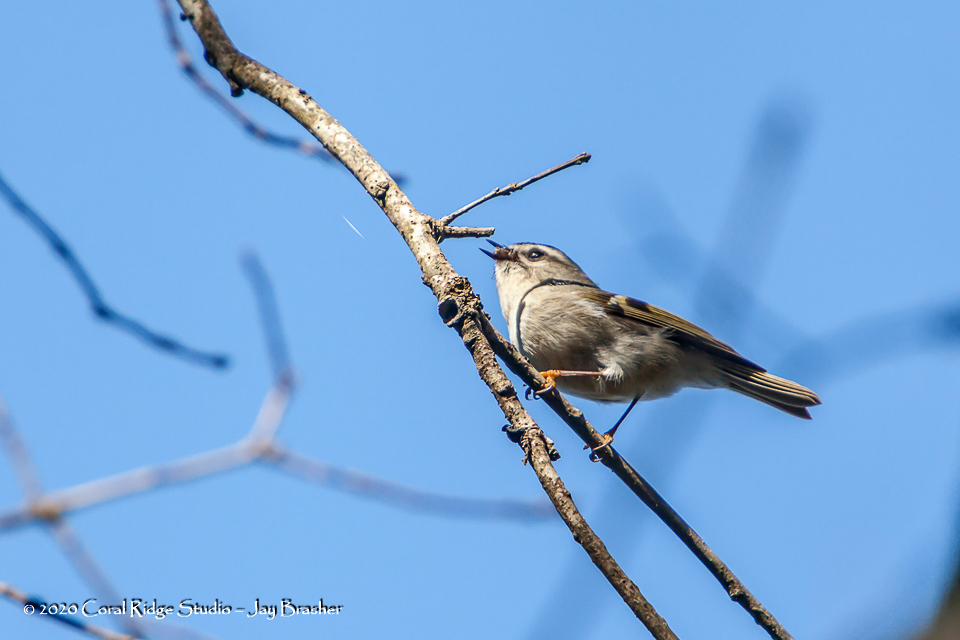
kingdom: Animalia
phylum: Chordata
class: Aves
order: Passeriformes
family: Regulidae
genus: Regulus
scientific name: Regulus satrapa
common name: Golden-crowned kinglet
